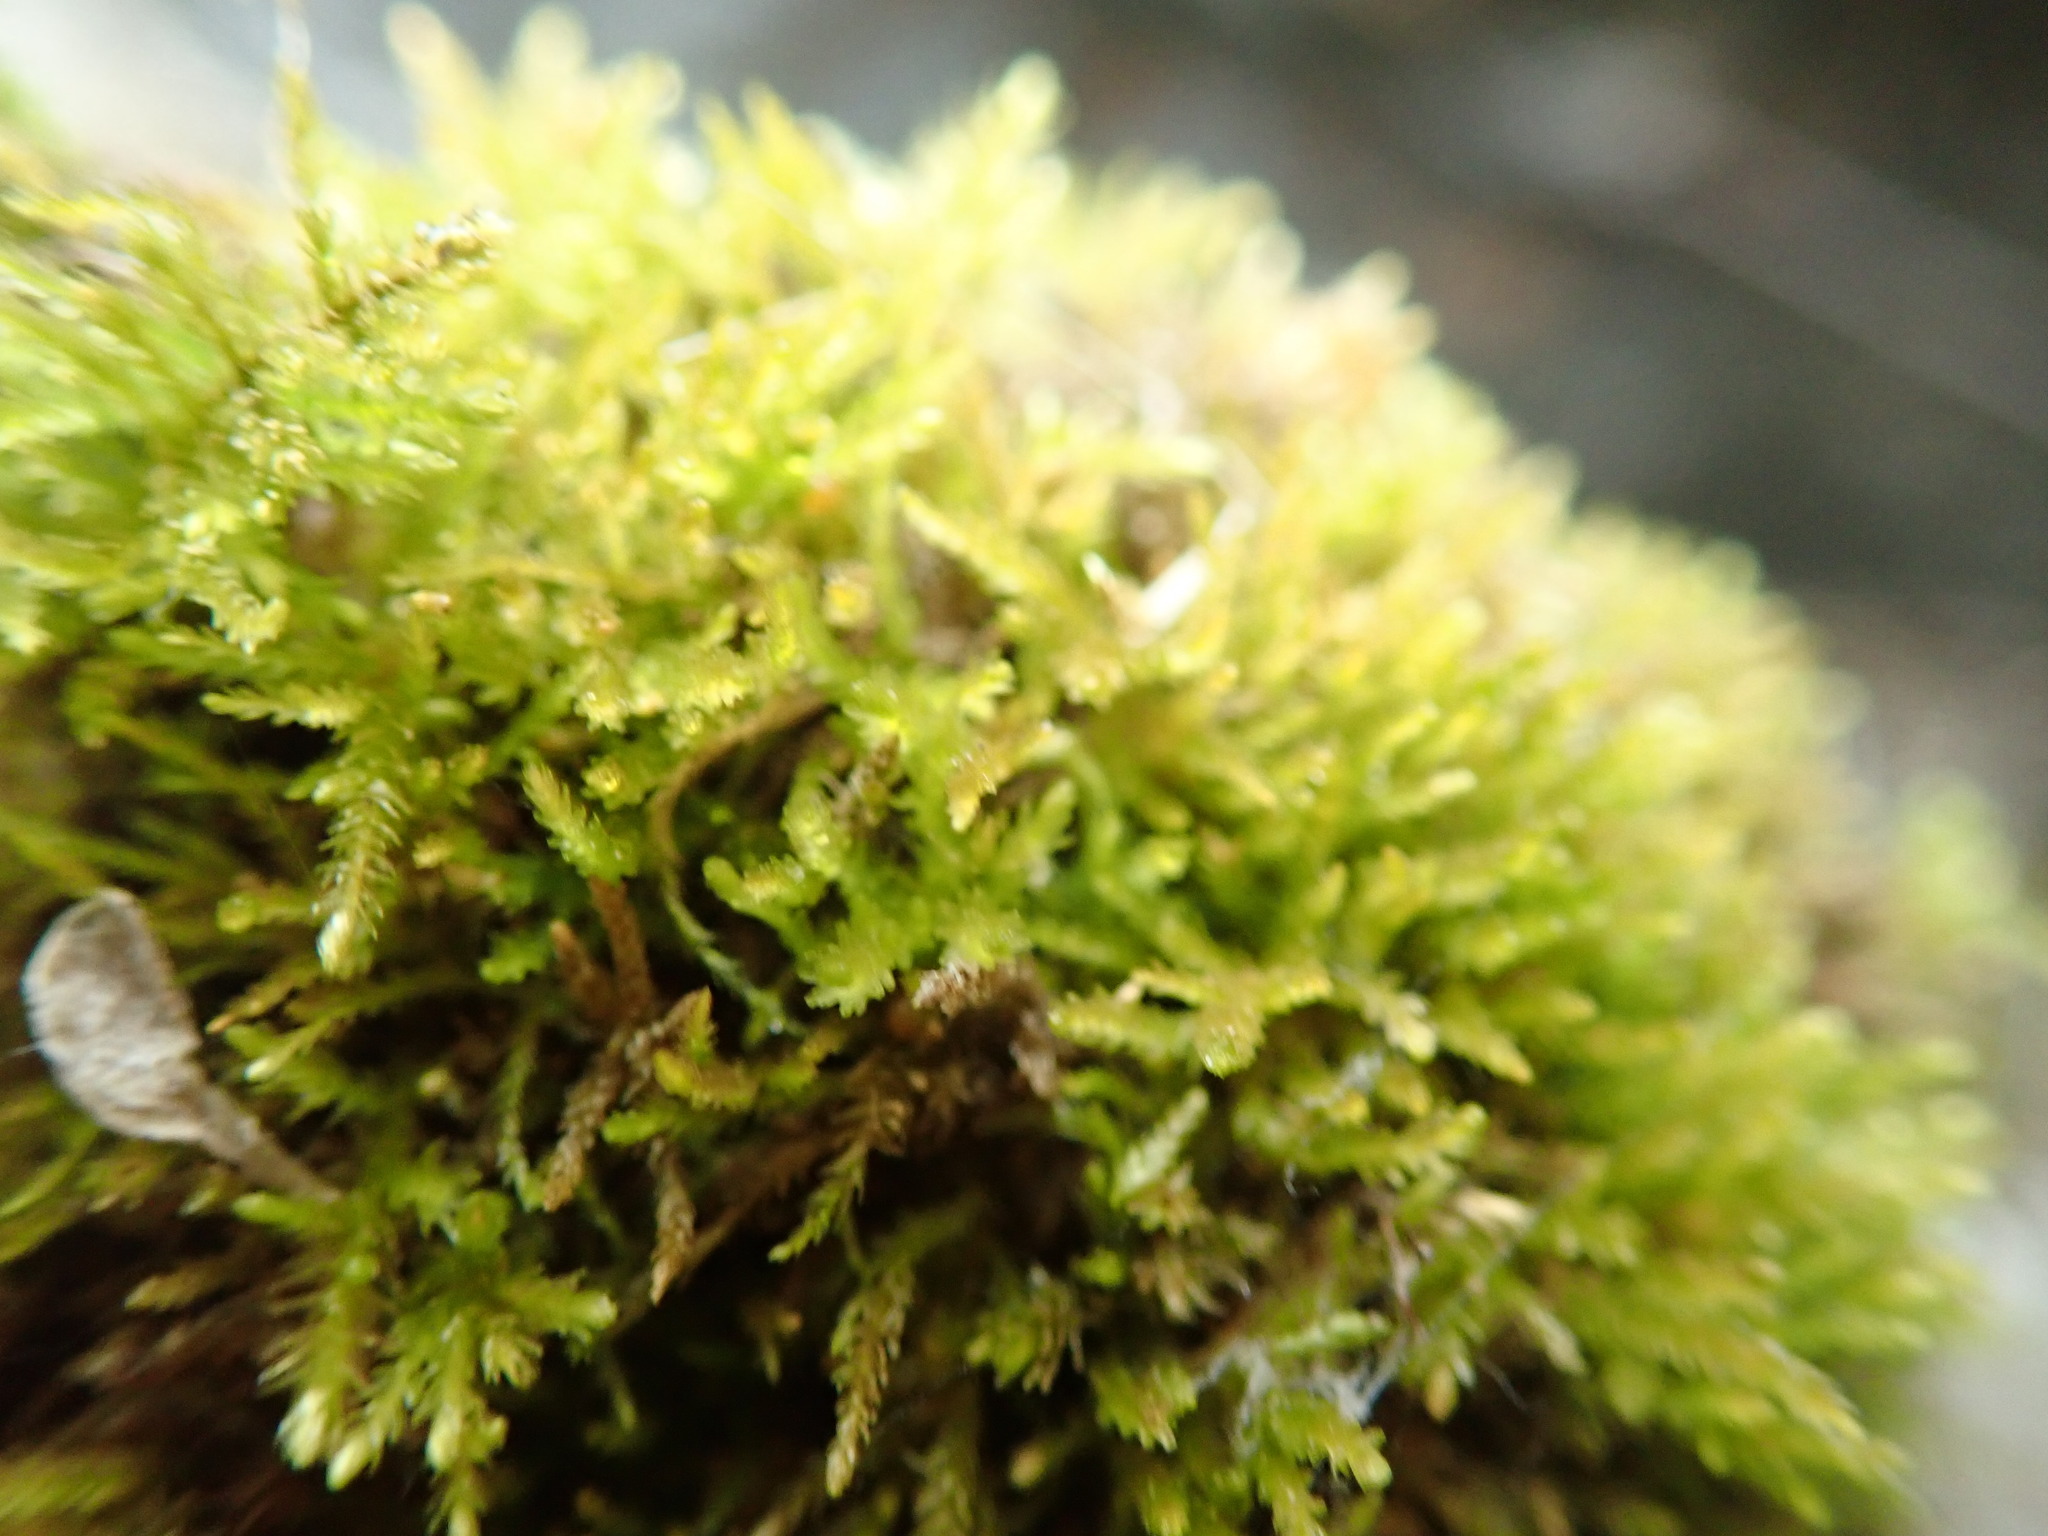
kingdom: Plantae
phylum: Bryophyta
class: Bryopsida
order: Hypnales
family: Brachytheciaceae
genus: Eurhynchiastrum
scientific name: Eurhynchiastrum pulchellum
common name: Elegant beaked moss
